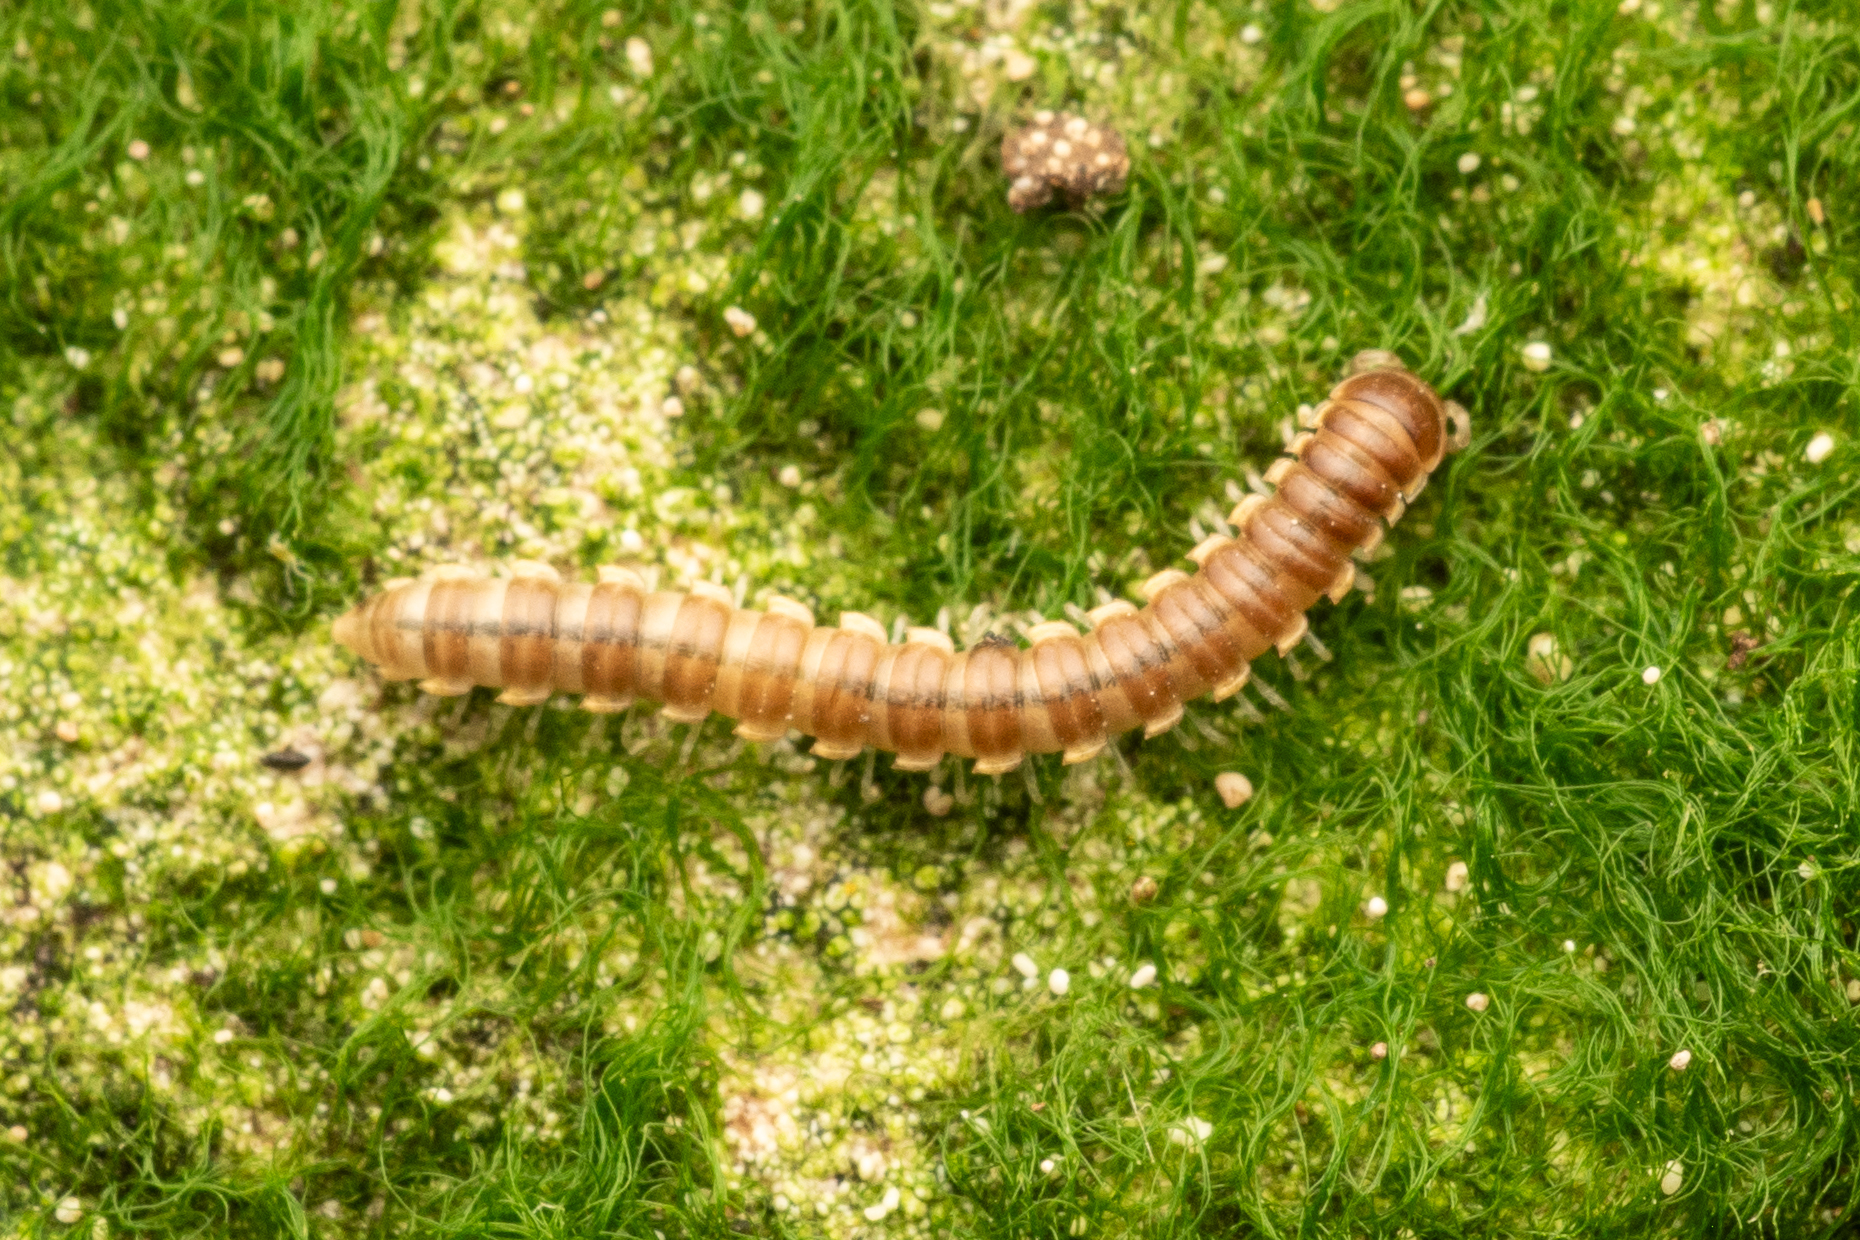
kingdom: Animalia
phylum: Arthropoda
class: Diplopoda
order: Polydesmida
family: Paradoxosomatidae
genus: Orthomorpha
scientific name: Orthomorpha coarctata
